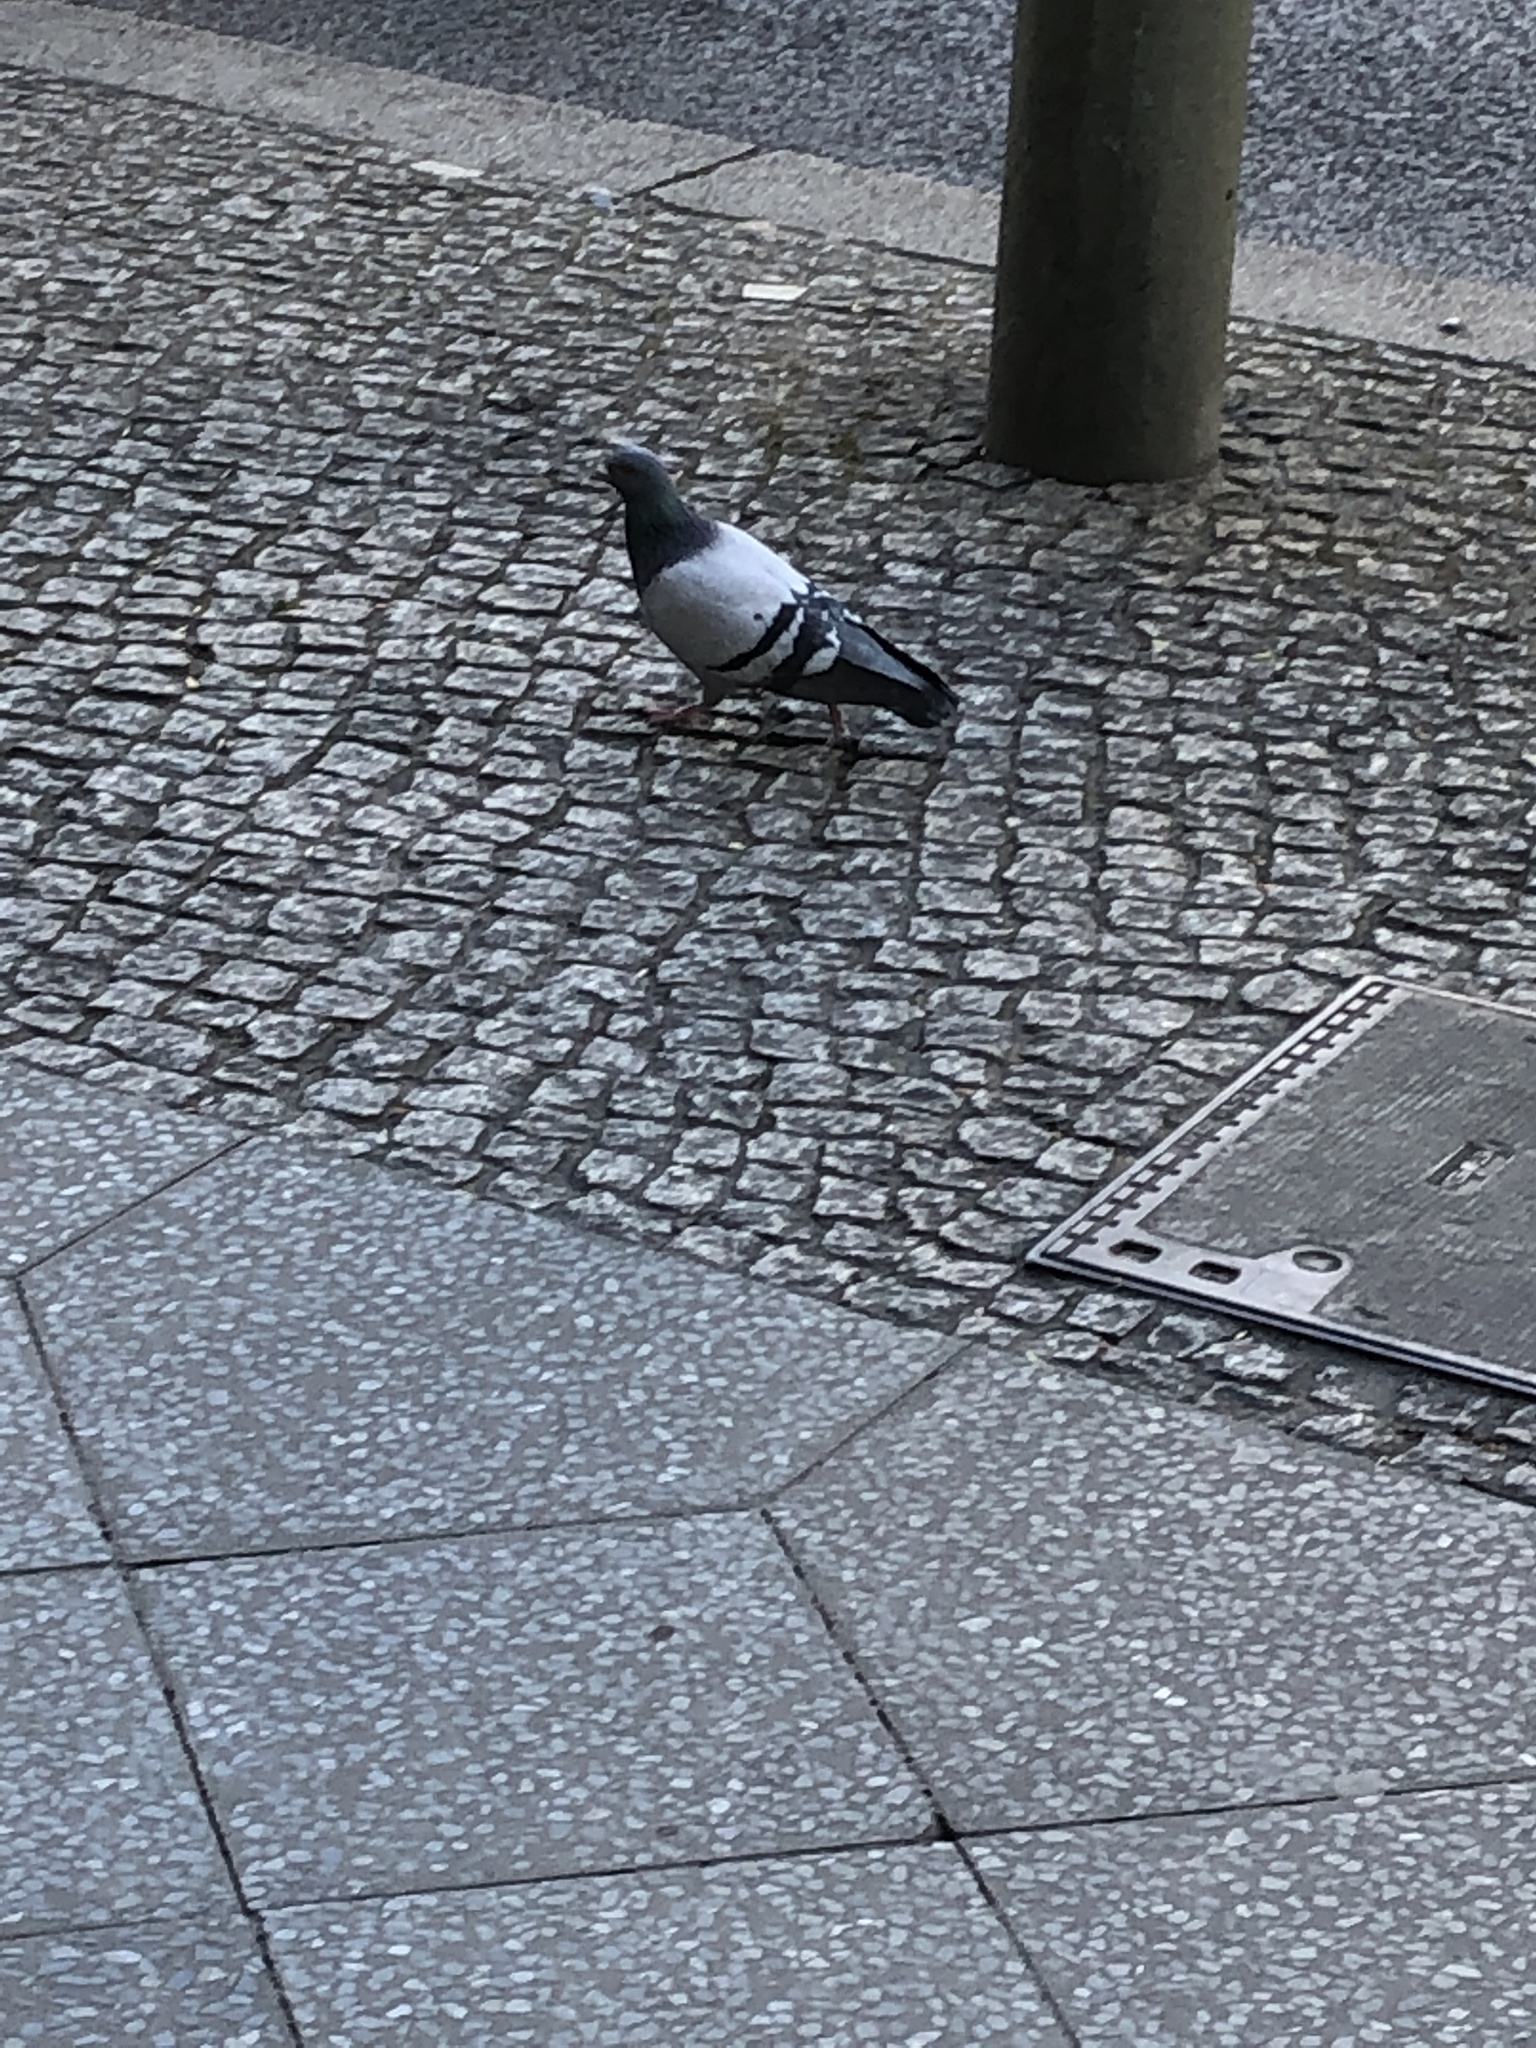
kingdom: Animalia
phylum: Chordata
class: Aves
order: Columbiformes
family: Columbidae
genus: Columba
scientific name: Columba livia
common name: Rock pigeon
